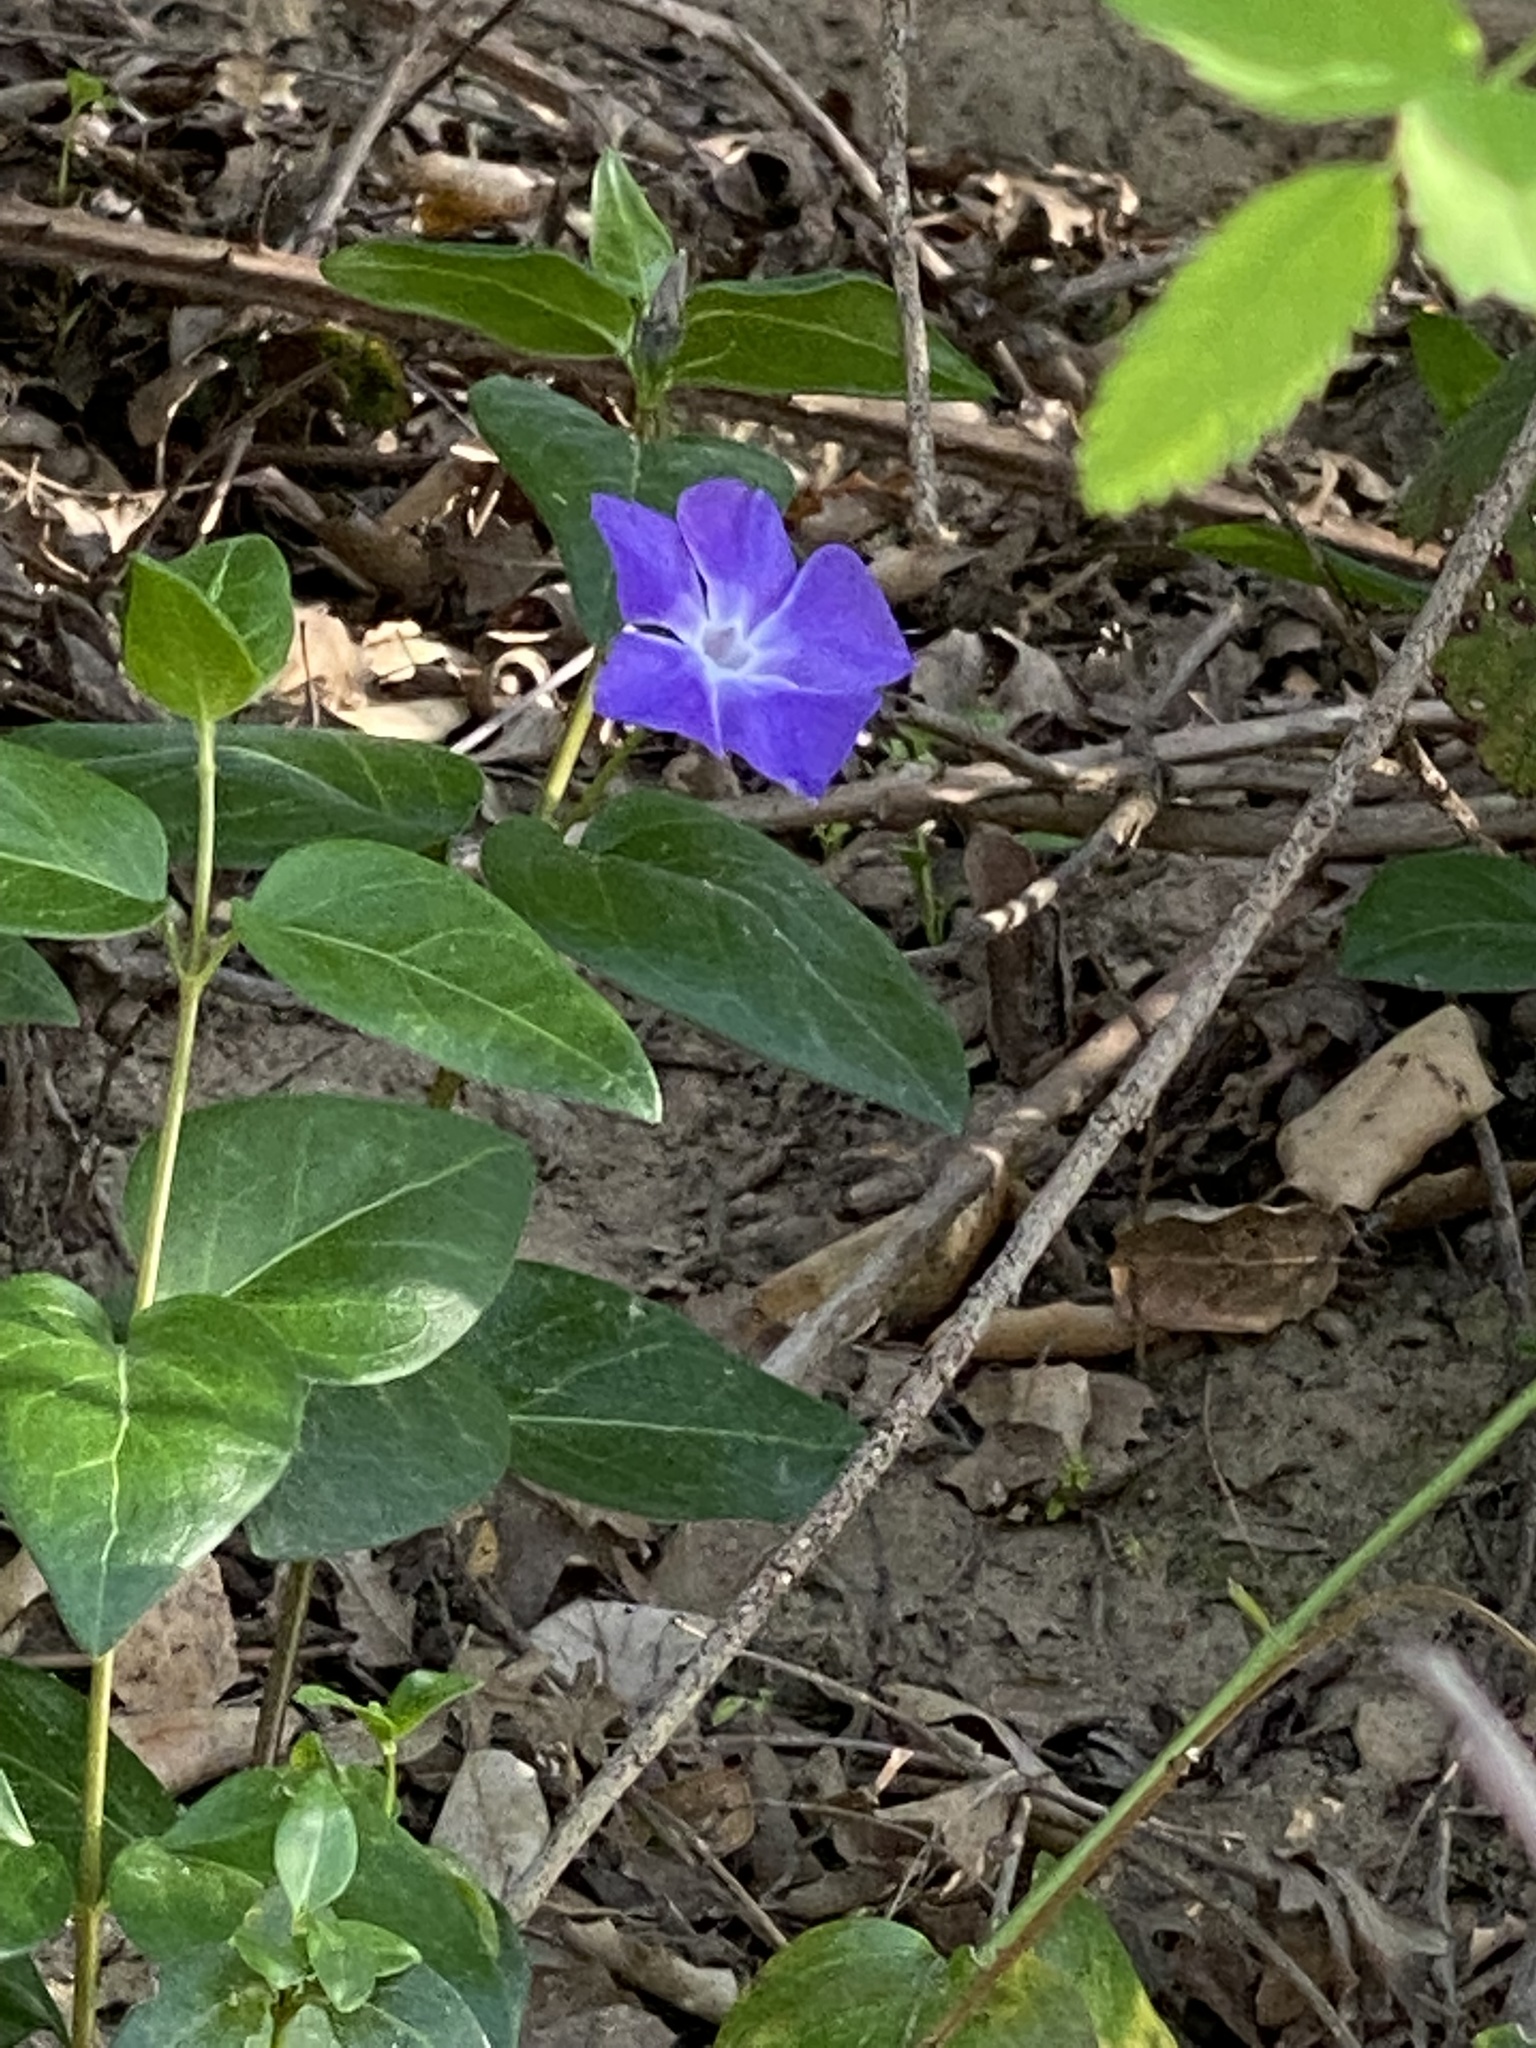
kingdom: Plantae
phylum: Tracheophyta
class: Magnoliopsida
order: Gentianales
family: Apocynaceae
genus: Vinca
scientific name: Vinca major
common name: Greater periwinkle
